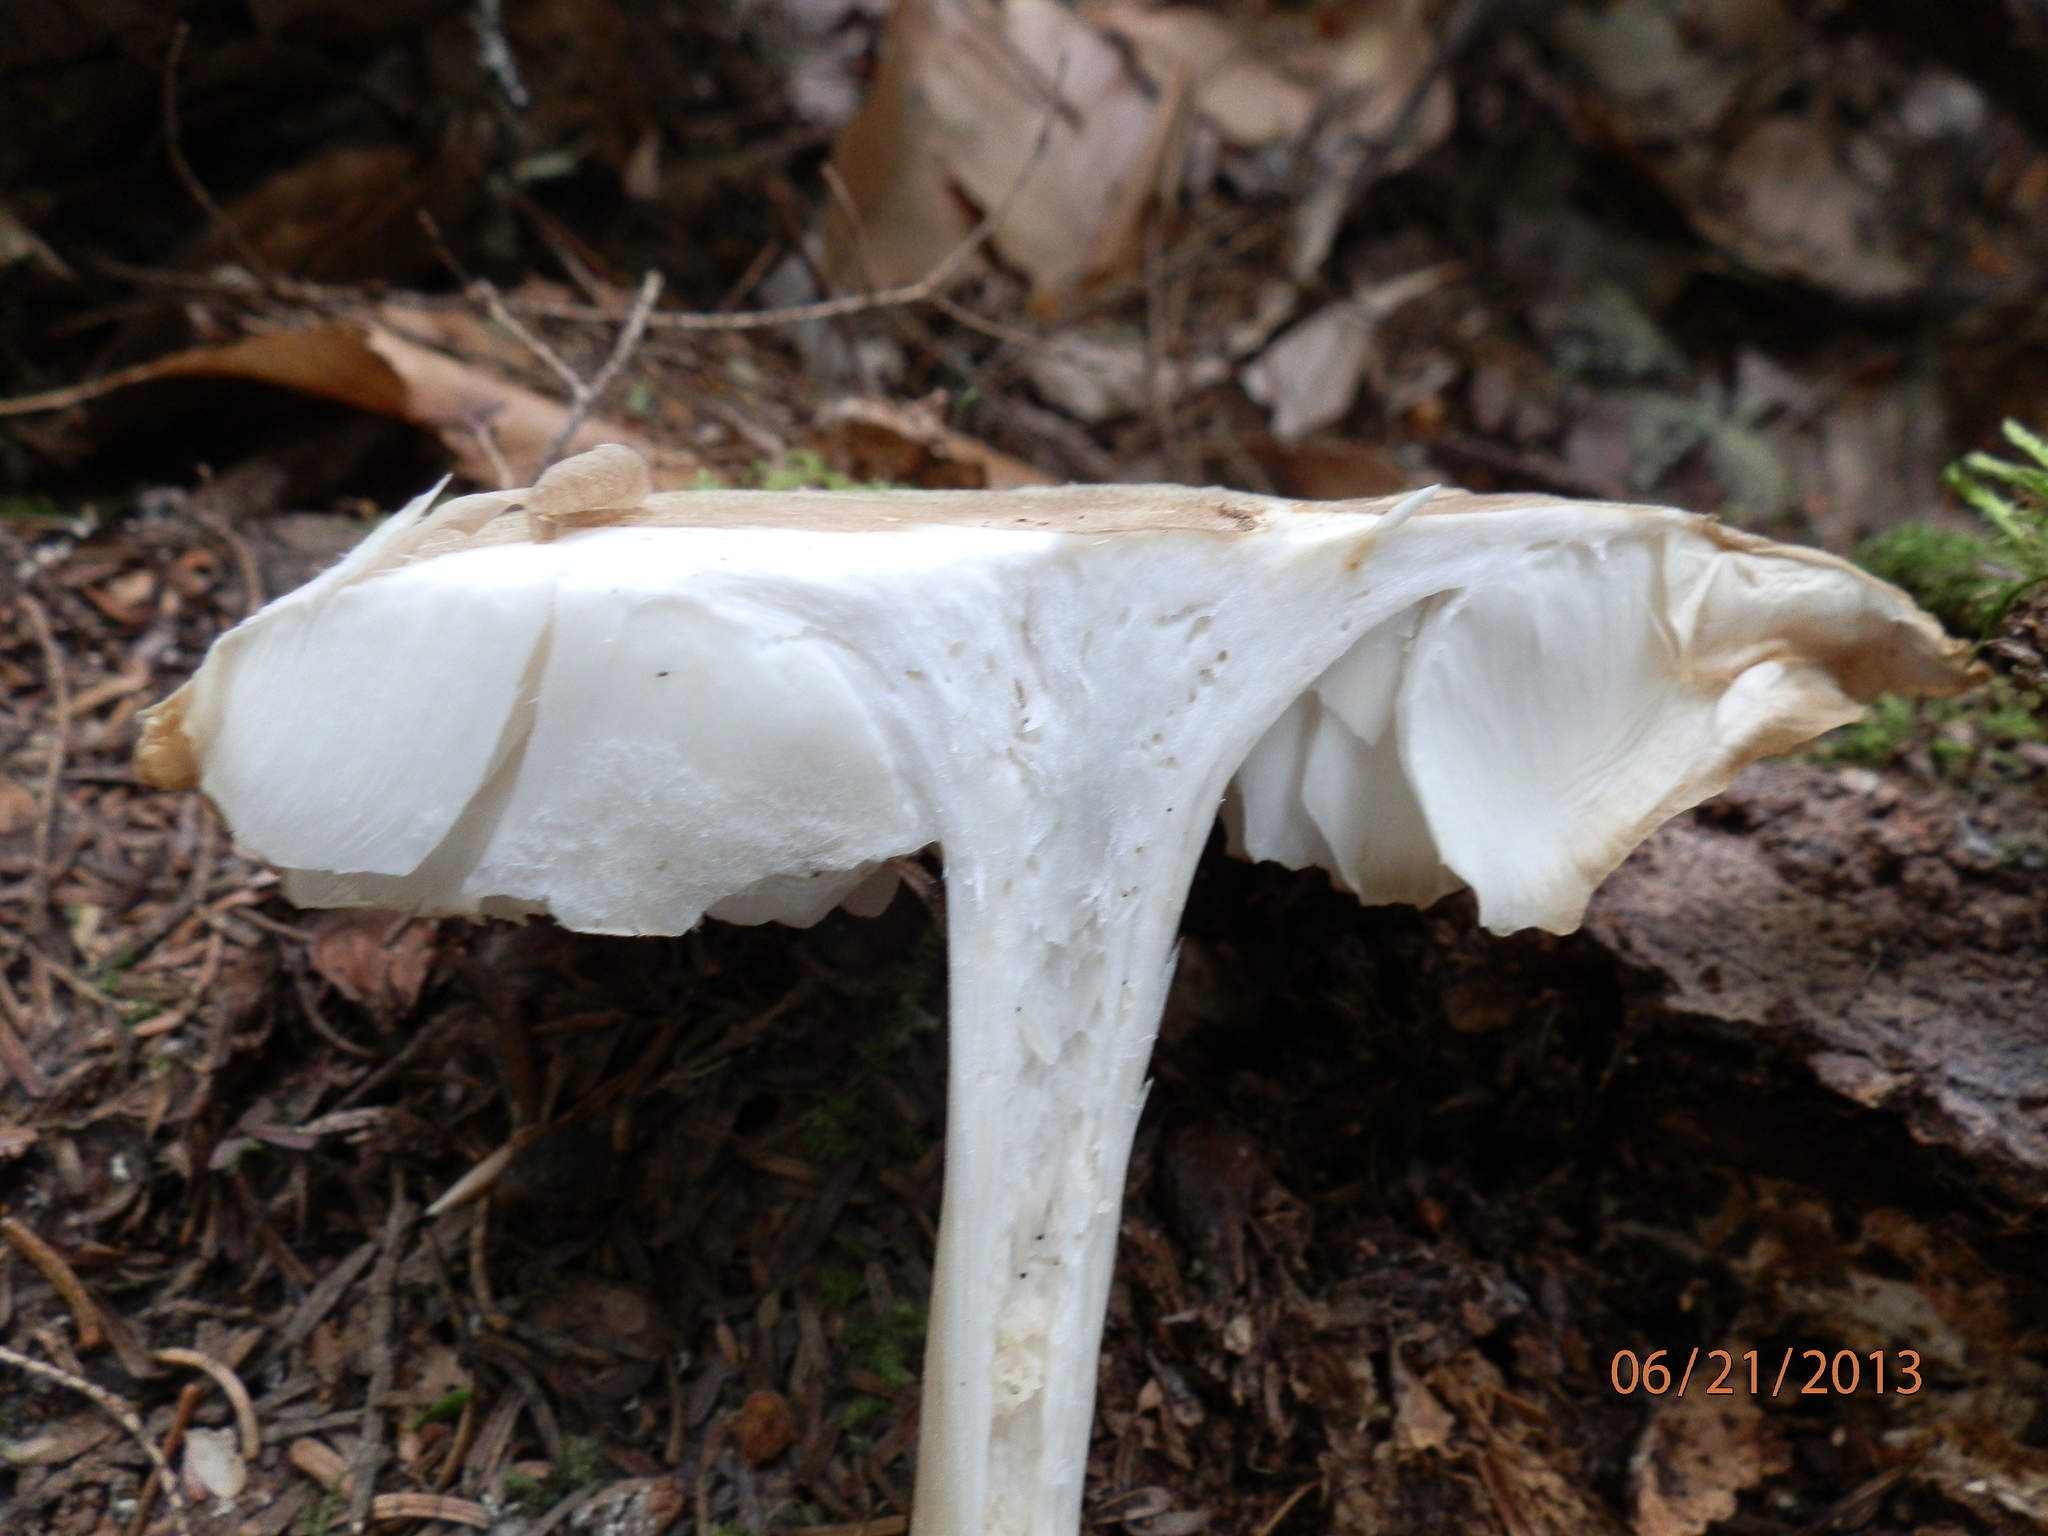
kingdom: Fungi
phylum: Basidiomycota
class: Agaricomycetes
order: Agaricales
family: Tricholomataceae
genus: Megacollybia
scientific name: Megacollybia rodmanii
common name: Eastern american platterful mushroom
